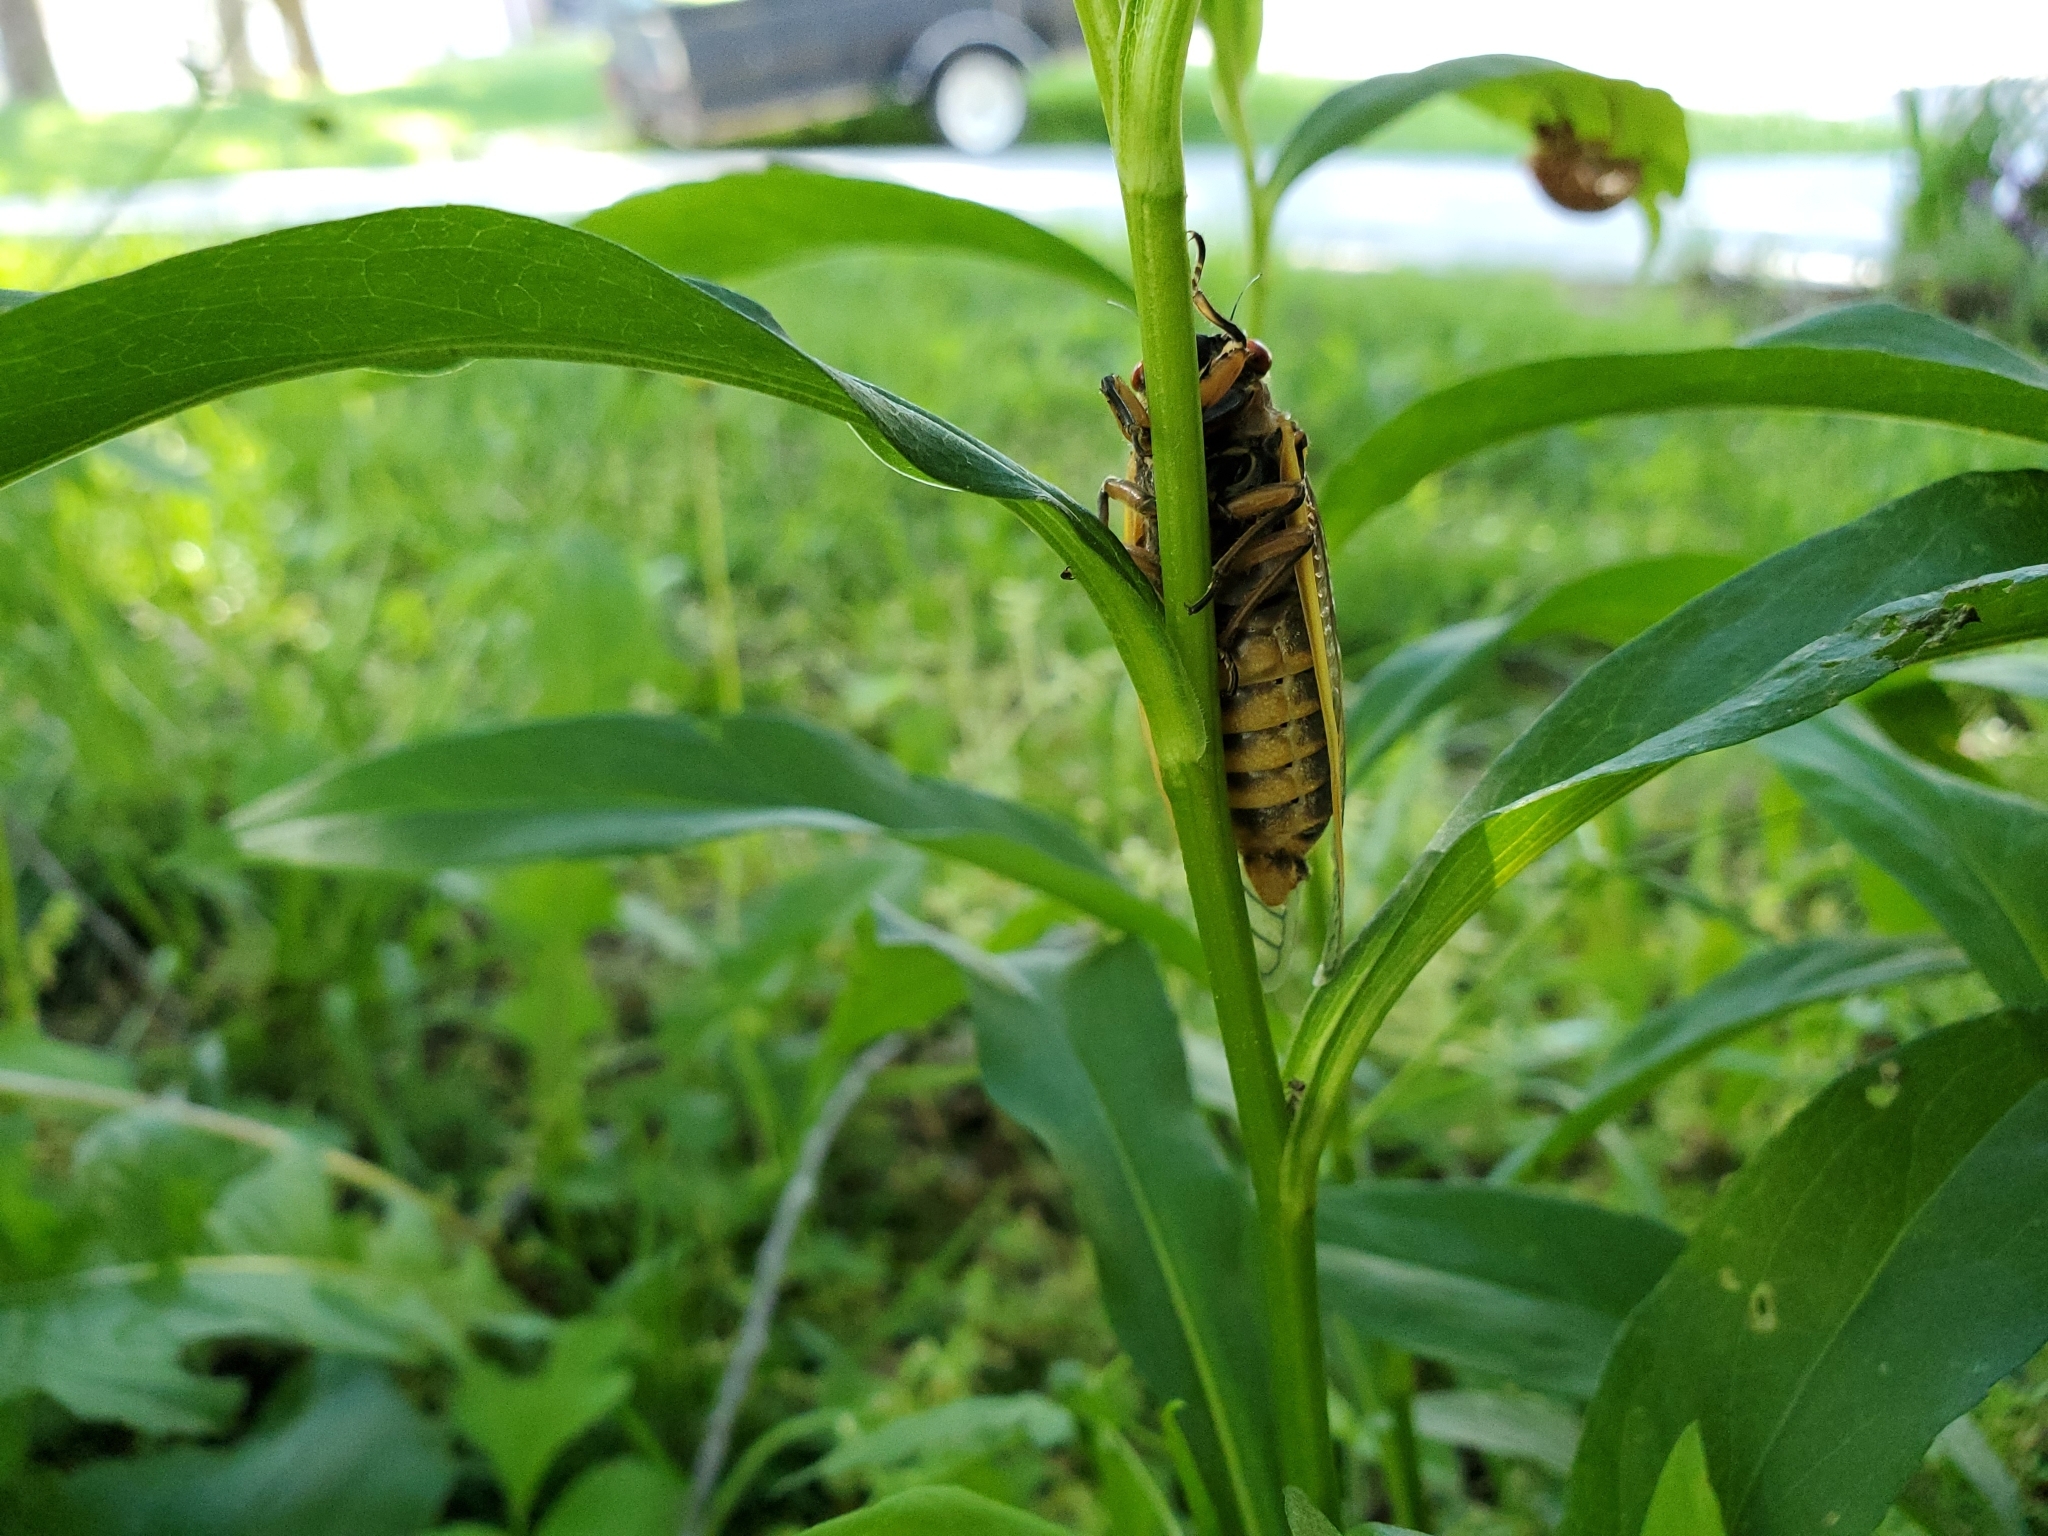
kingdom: Animalia
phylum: Arthropoda
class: Insecta
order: Hemiptera
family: Cicadidae
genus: Magicicada
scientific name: Magicicada septendecim
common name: Periodical cicada
